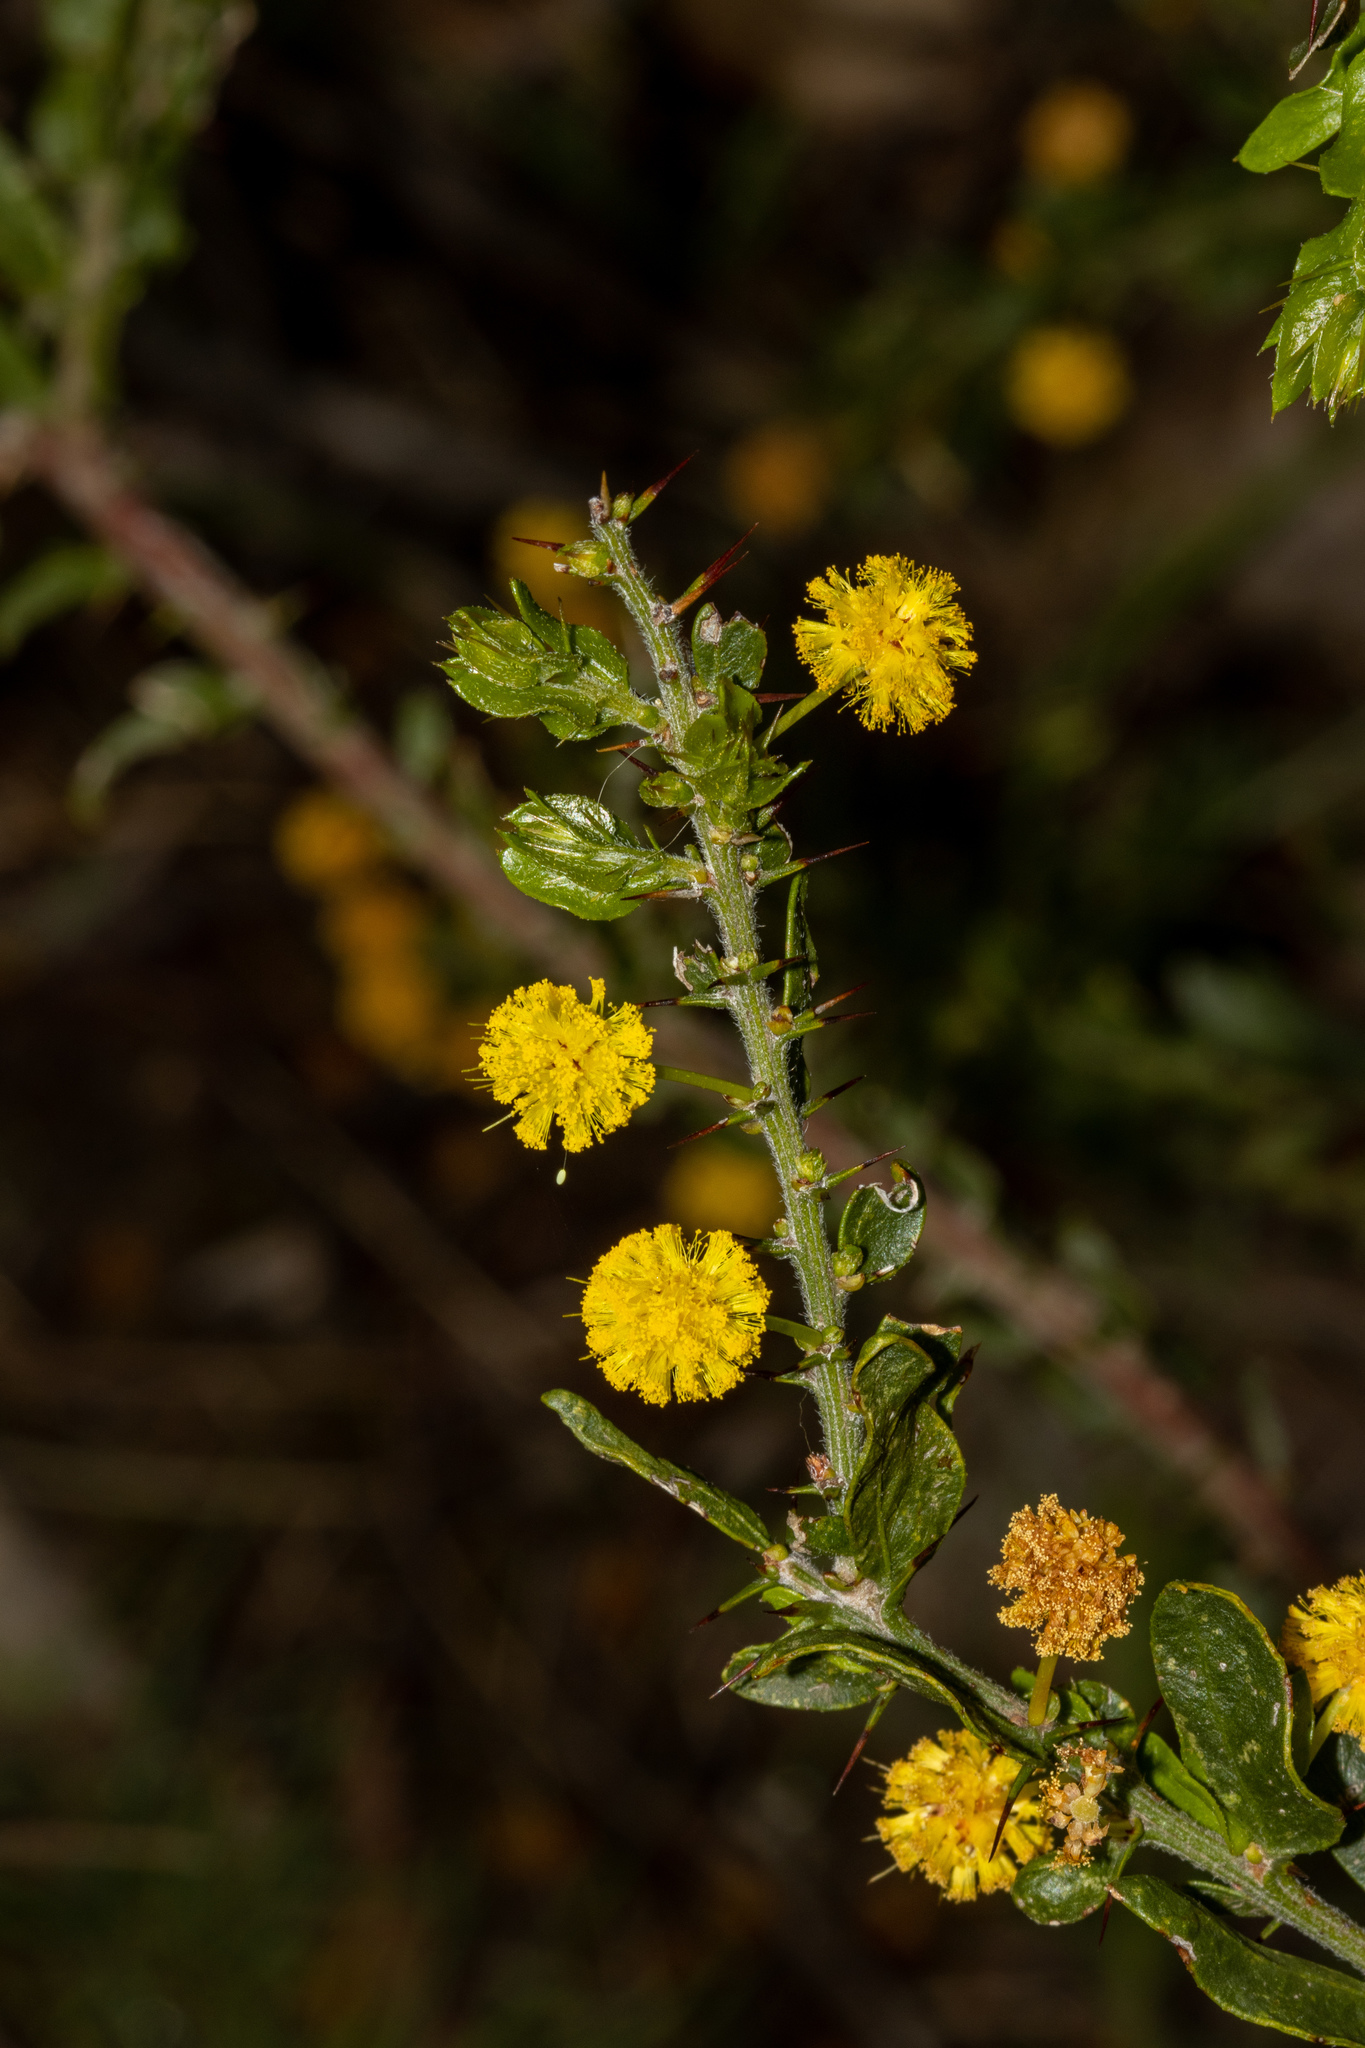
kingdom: Plantae
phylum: Tracheophyta
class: Magnoliopsida
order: Fabales
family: Fabaceae
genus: Acacia
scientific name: Acacia paradoxa
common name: Paradox acacia
